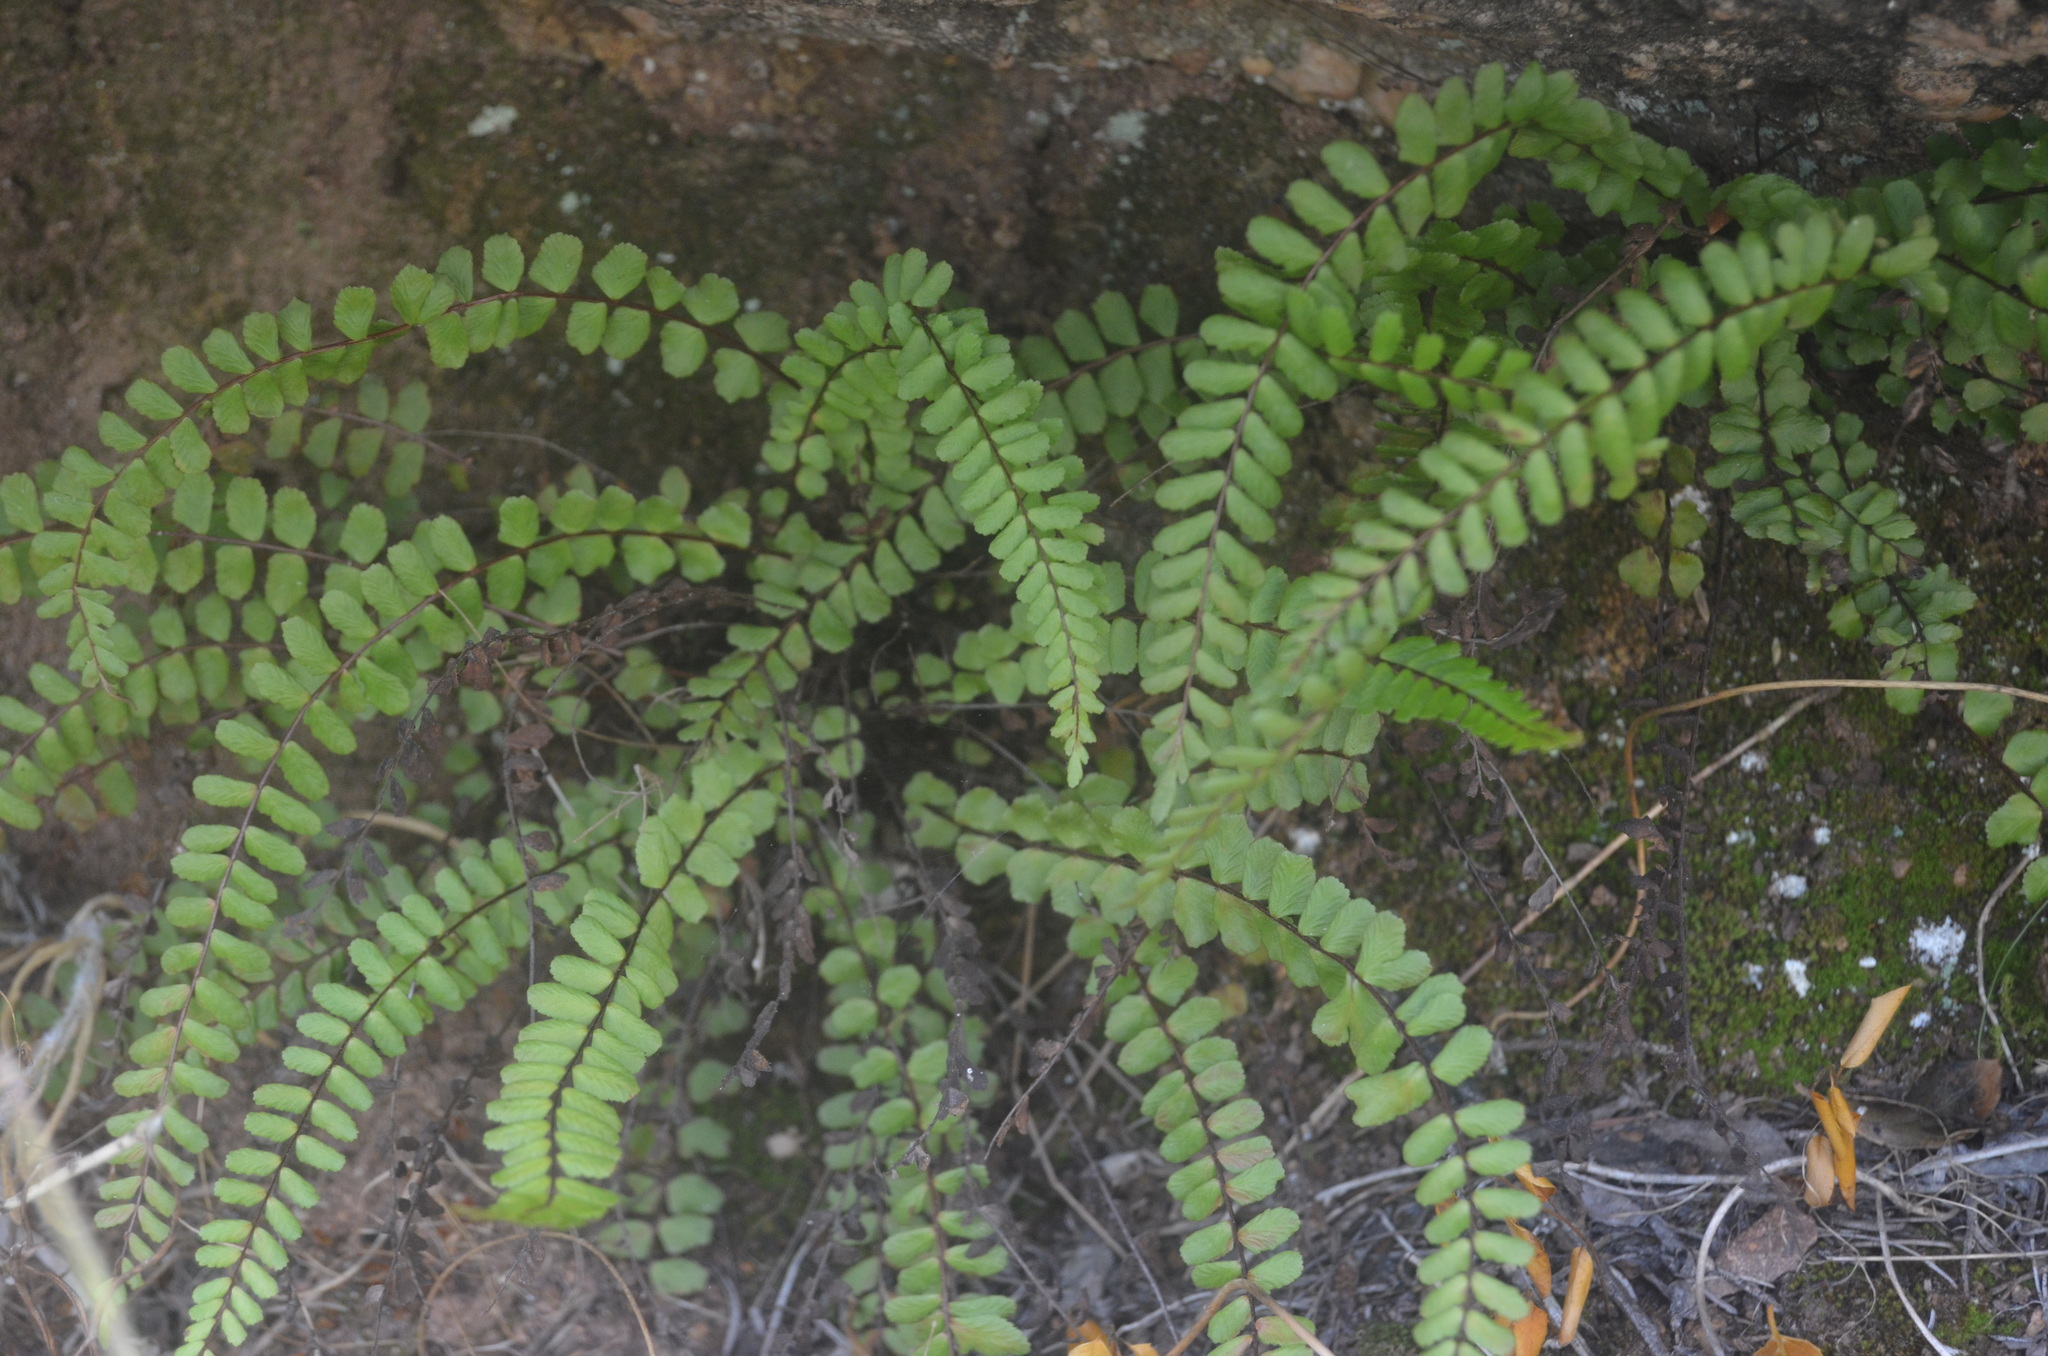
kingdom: Plantae
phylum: Tracheophyta
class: Polypodiopsida
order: Polypodiales
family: Aspleniaceae
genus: Asplenium
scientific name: Asplenium trichomanes
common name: Maidenhair spleenwort
